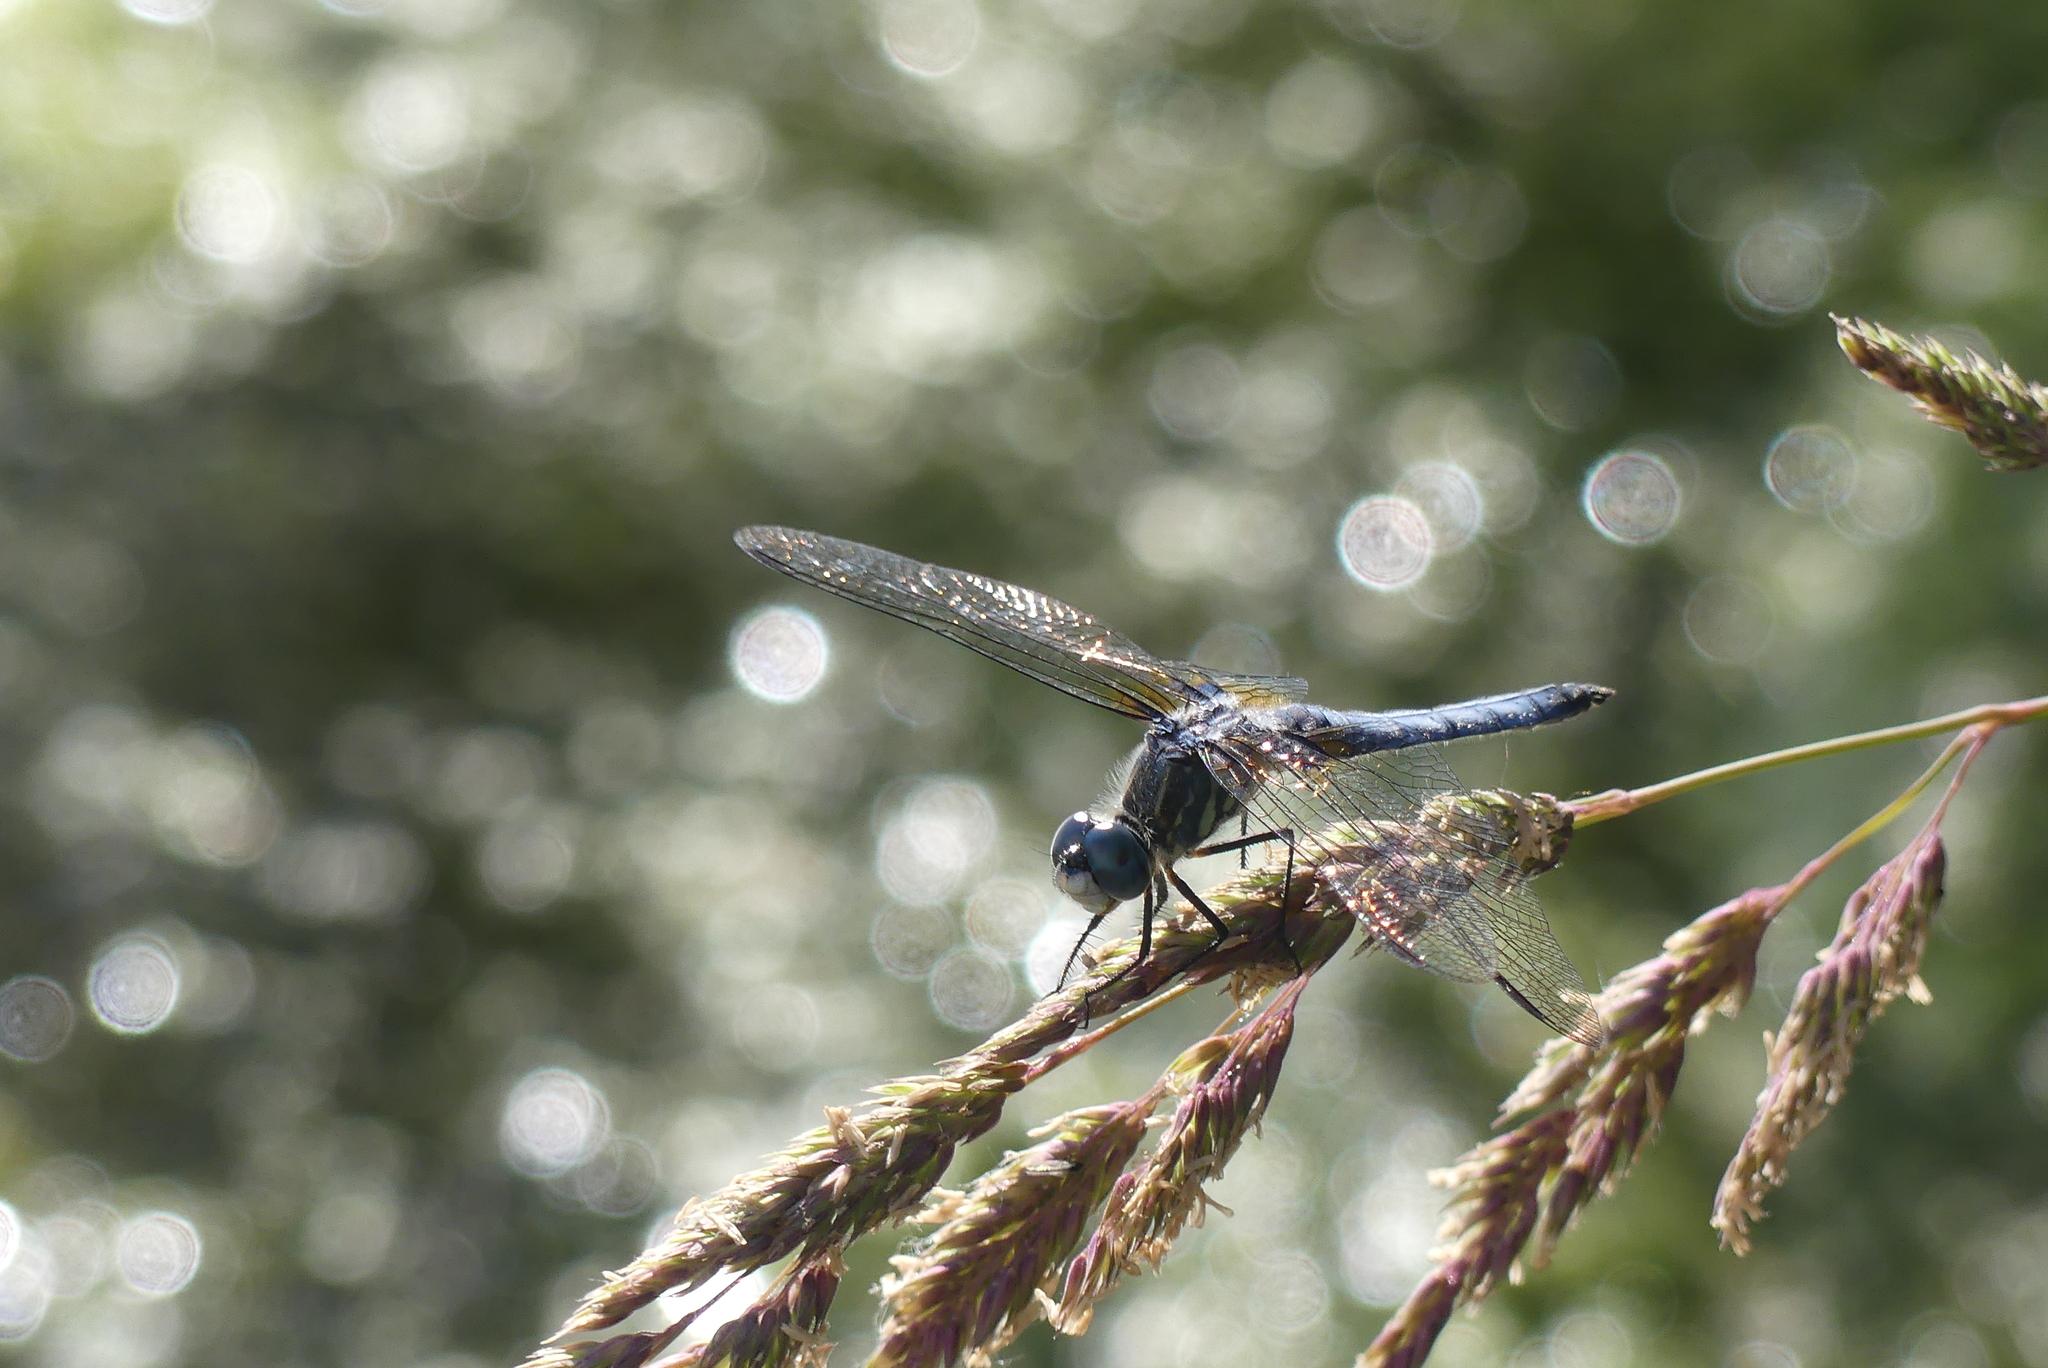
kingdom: Animalia
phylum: Arthropoda
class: Insecta
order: Odonata
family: Libellulidae
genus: Pachydiplax
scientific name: Pachydiplax longipennis
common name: Blue dasher
